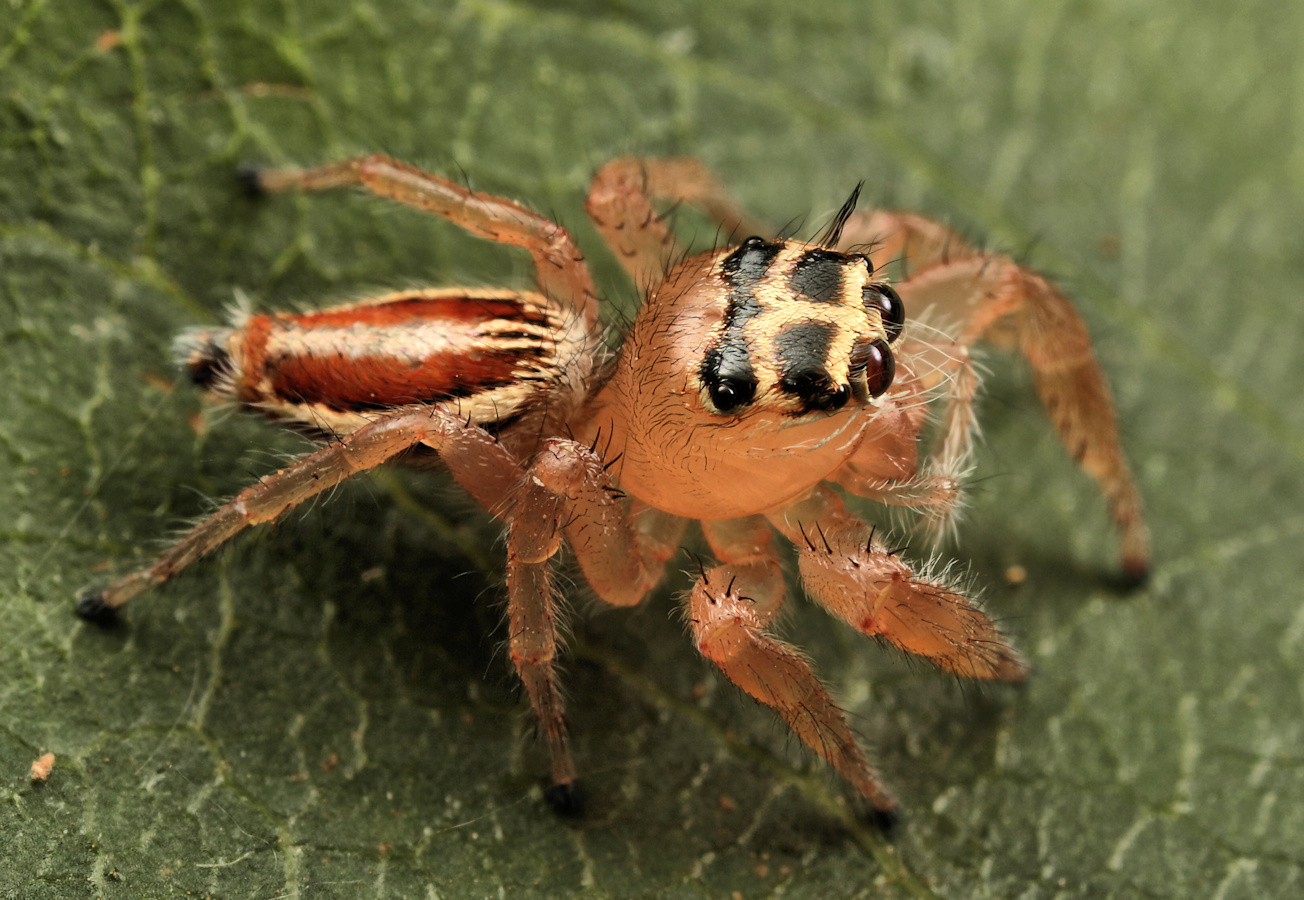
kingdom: Animalia
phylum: Arthropoda
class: Arachnida
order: Araneae
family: Salticidae
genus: Thyene
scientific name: Thyene inflata
